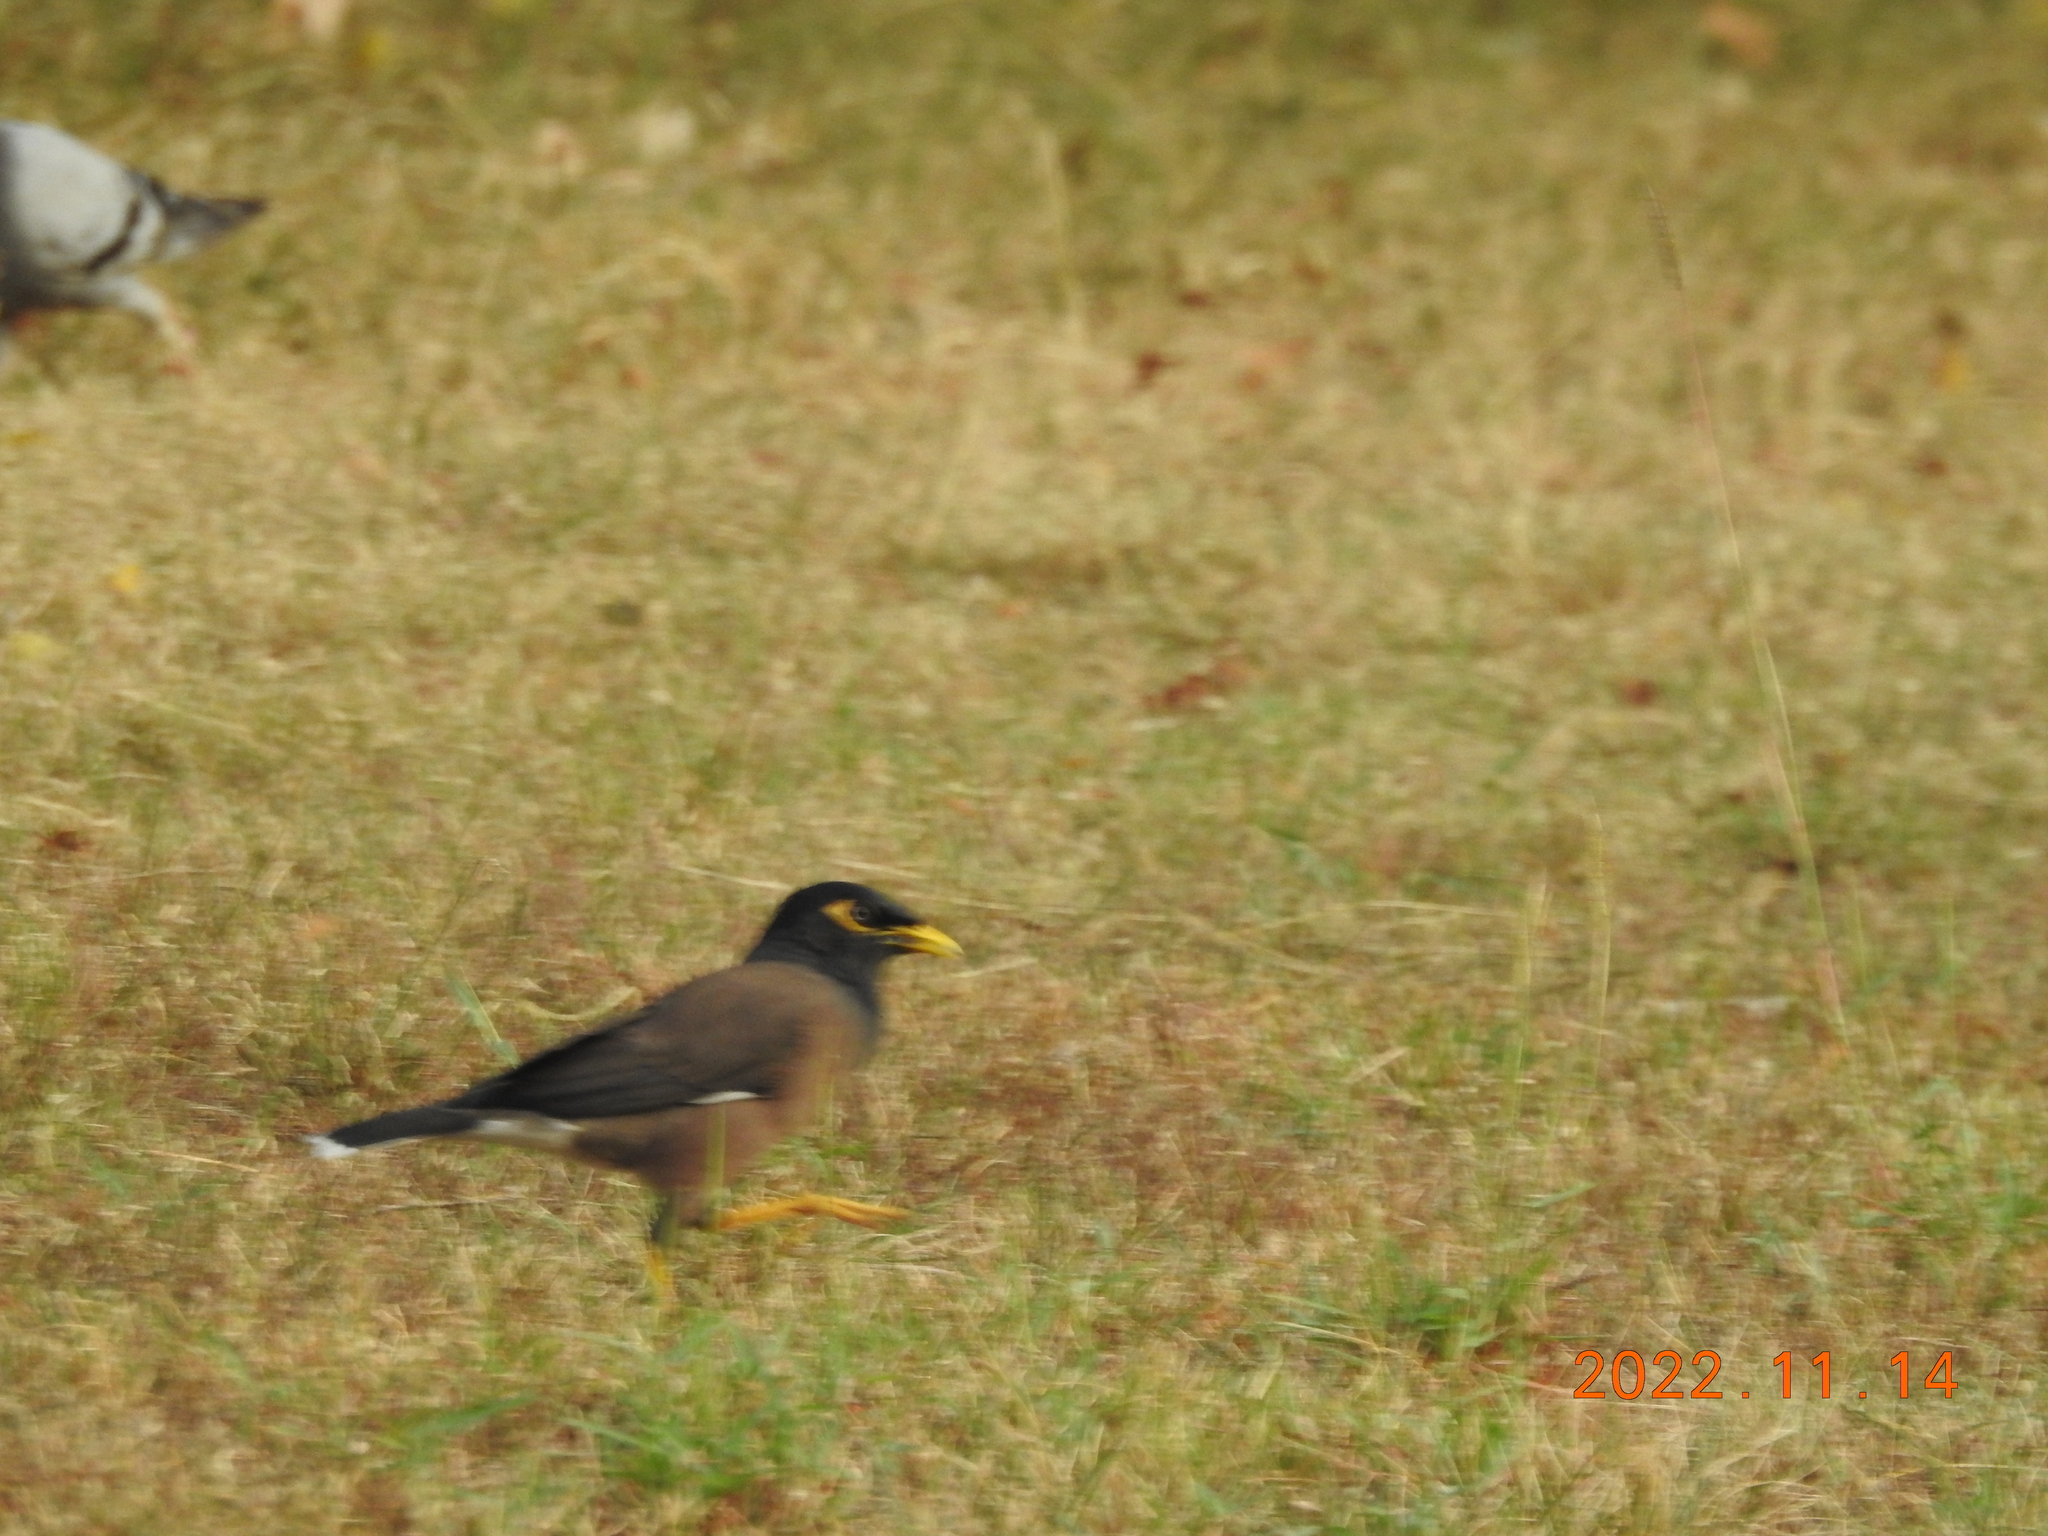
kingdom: Animalia
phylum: Chordata
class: Aves
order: Passeriformes
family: Sturnidae
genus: Acridotheres
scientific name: Acridotheres tristis
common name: Common myna
